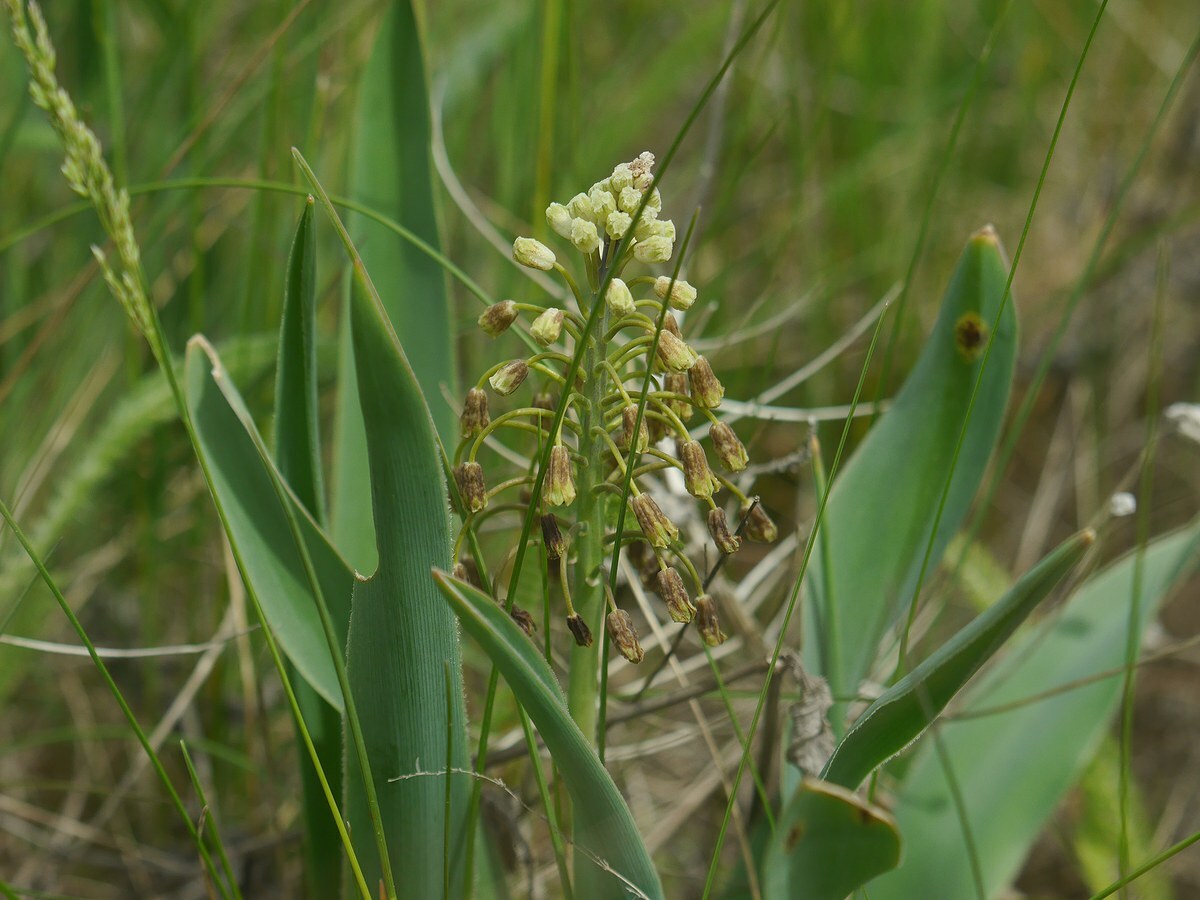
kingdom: Plantae
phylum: Tracheophyta
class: Liliopsida
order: Asparagales
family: Asparagaceae
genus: Bellevalia
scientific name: Bellevalia speciosa
